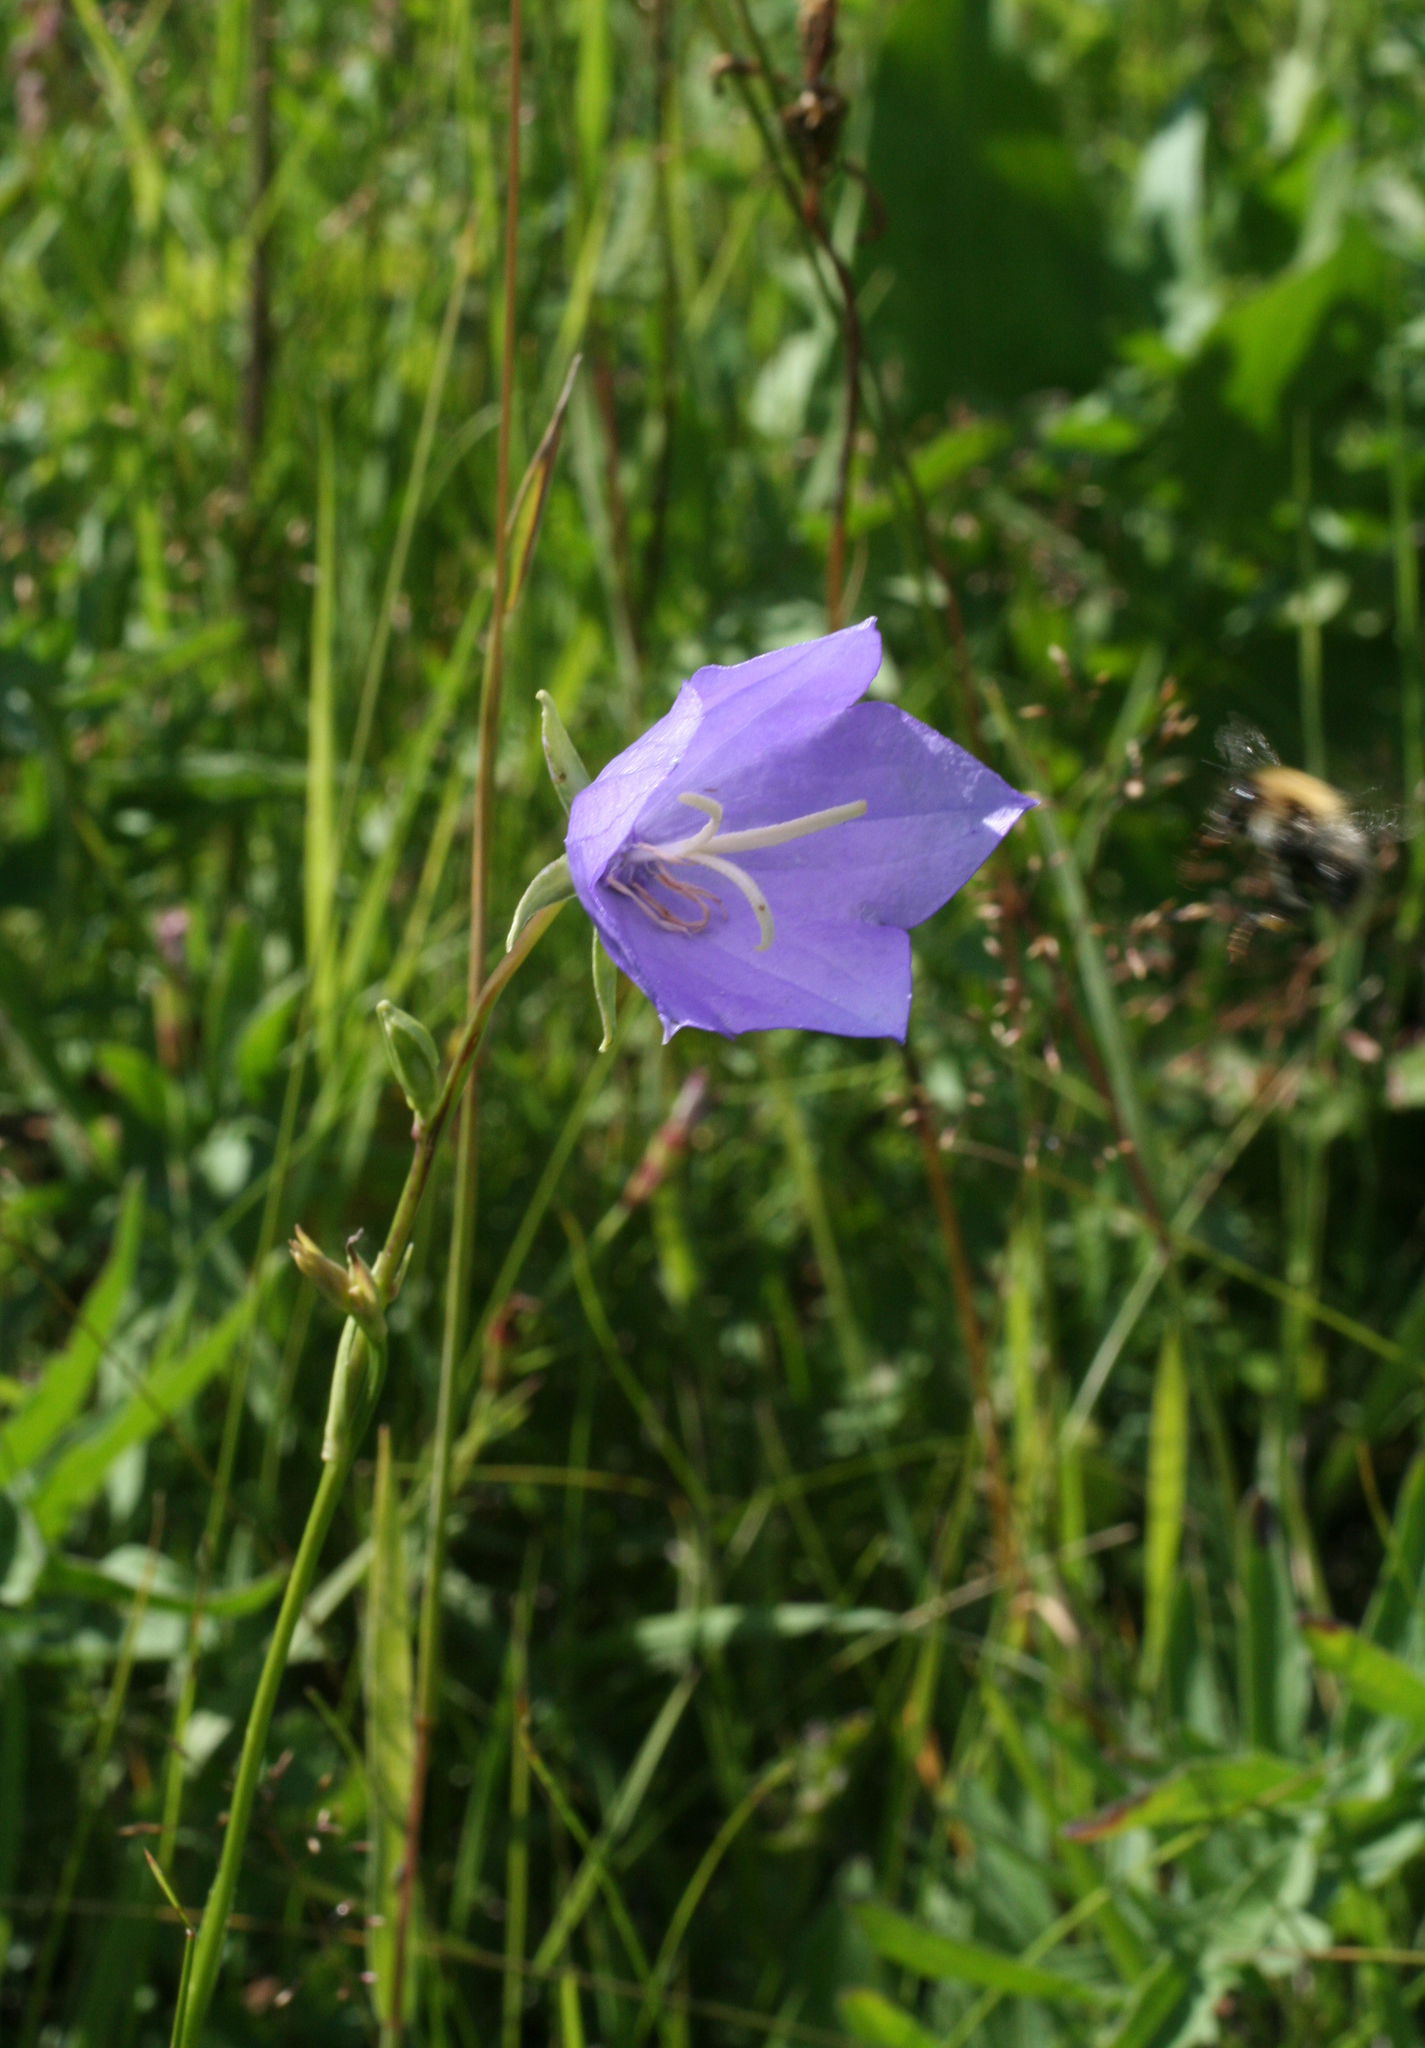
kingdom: Plantae
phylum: Tracheophyta
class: Magnoliopsida
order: Asterales
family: Campanulaceae
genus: Campanula
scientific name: Campanula persicifolia
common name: Peach-leaved bellflower
